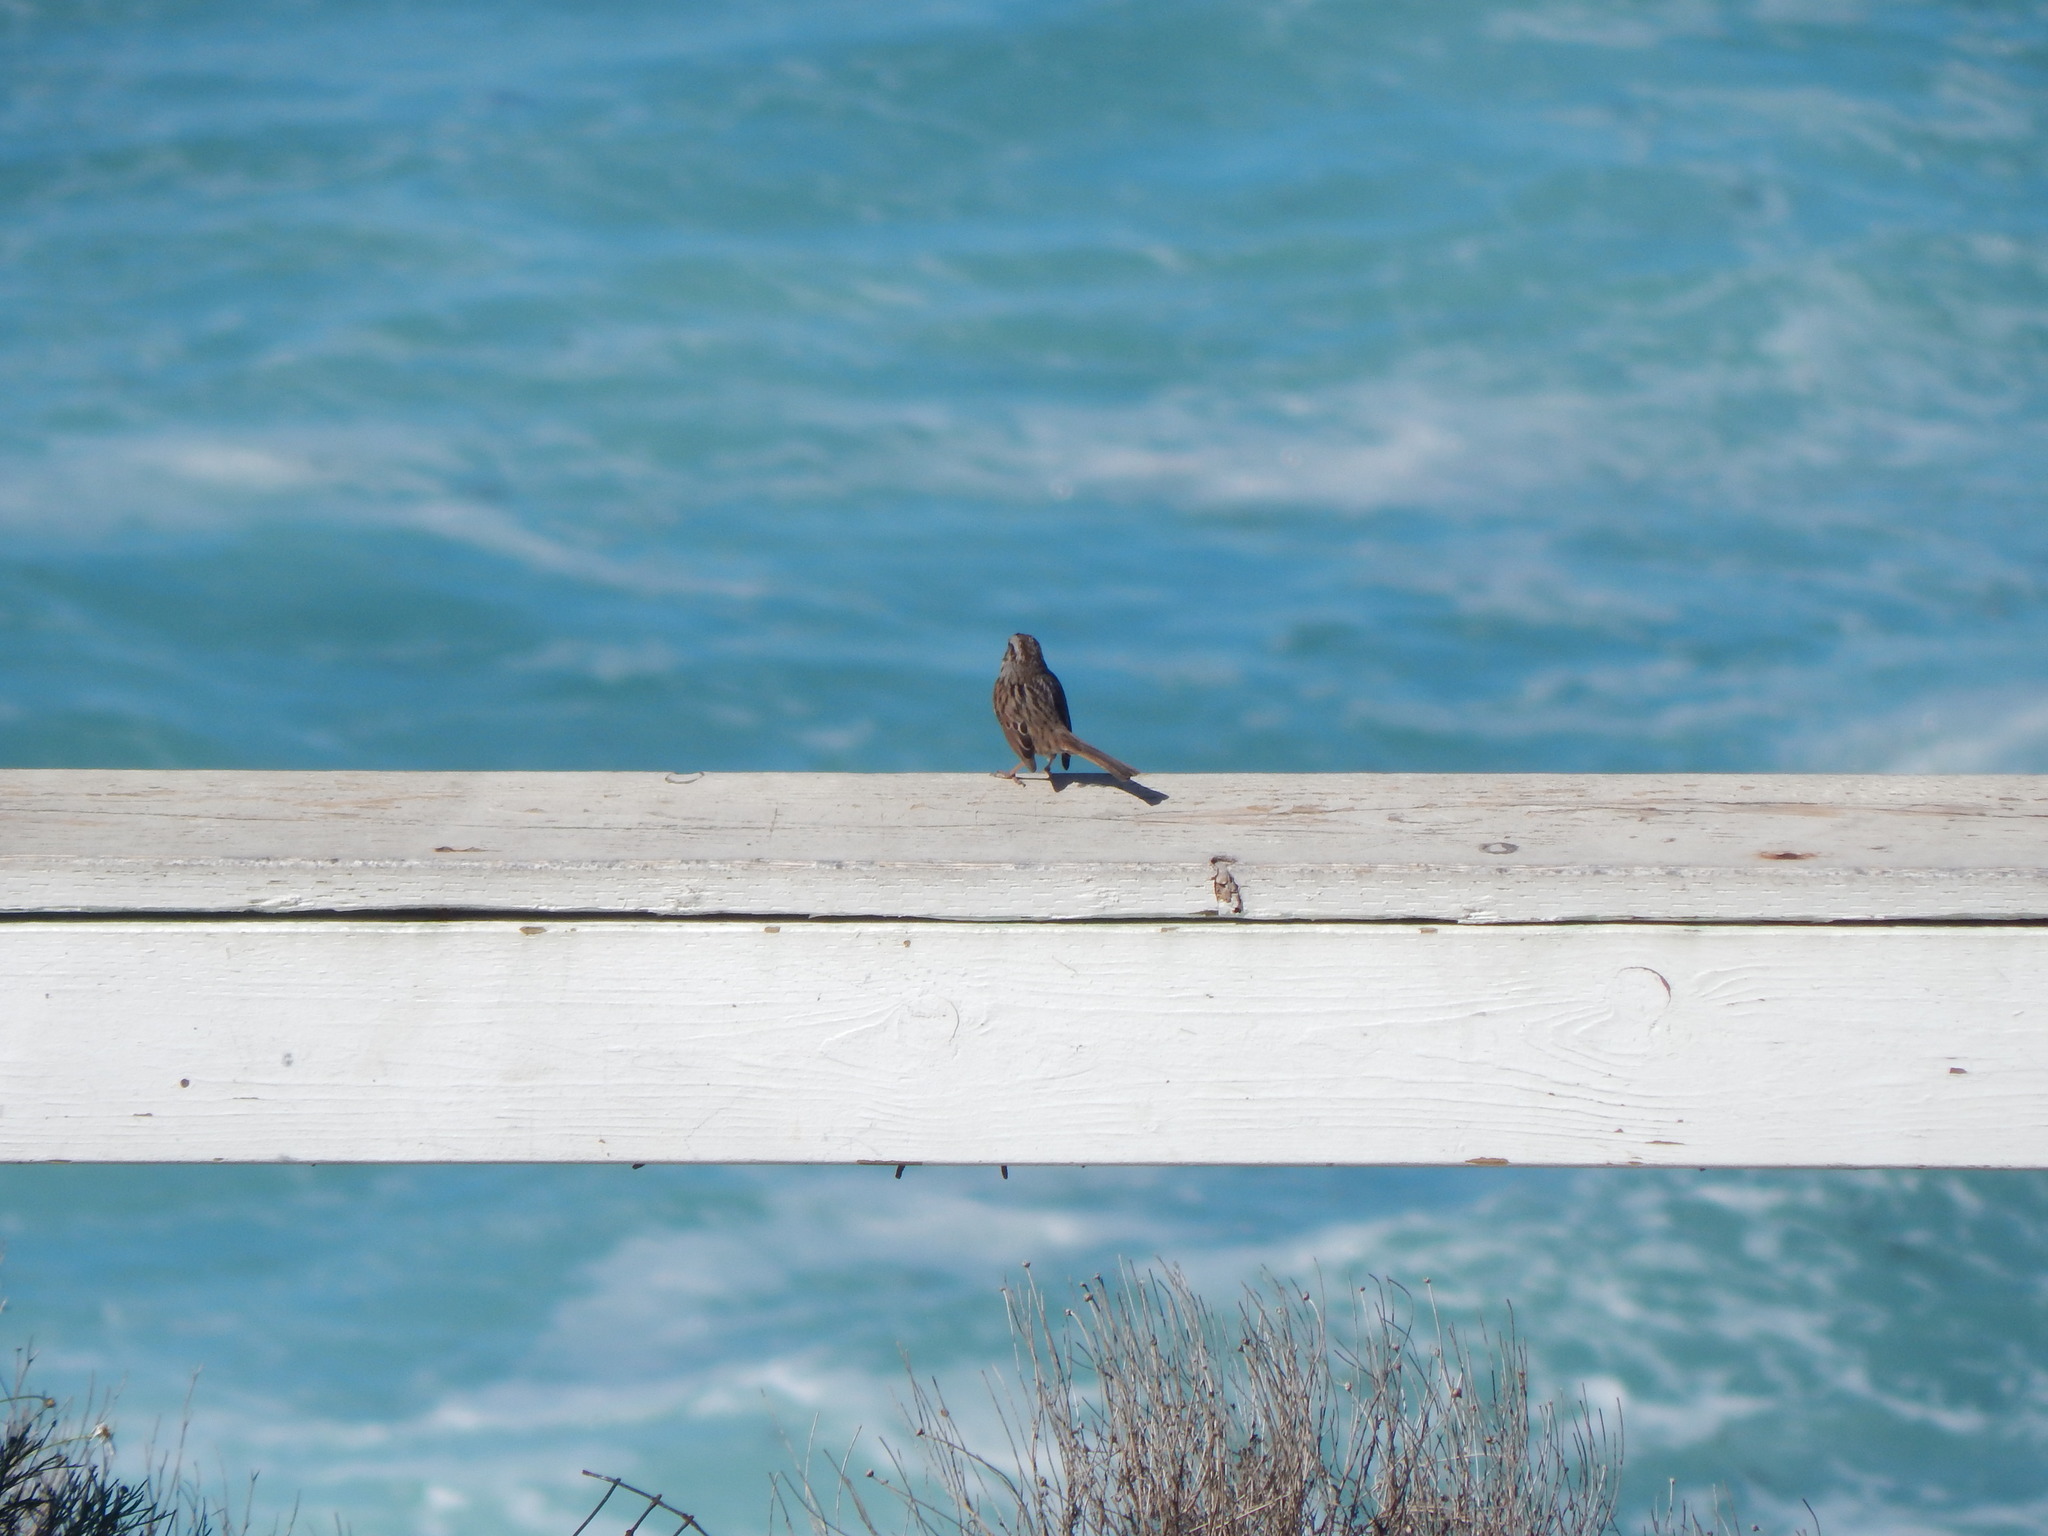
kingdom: Animalia
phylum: Chordata
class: Aves
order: Passeriformes
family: Passerellidae
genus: Melospiza
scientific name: Melospiza melodia
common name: Song sparrow
